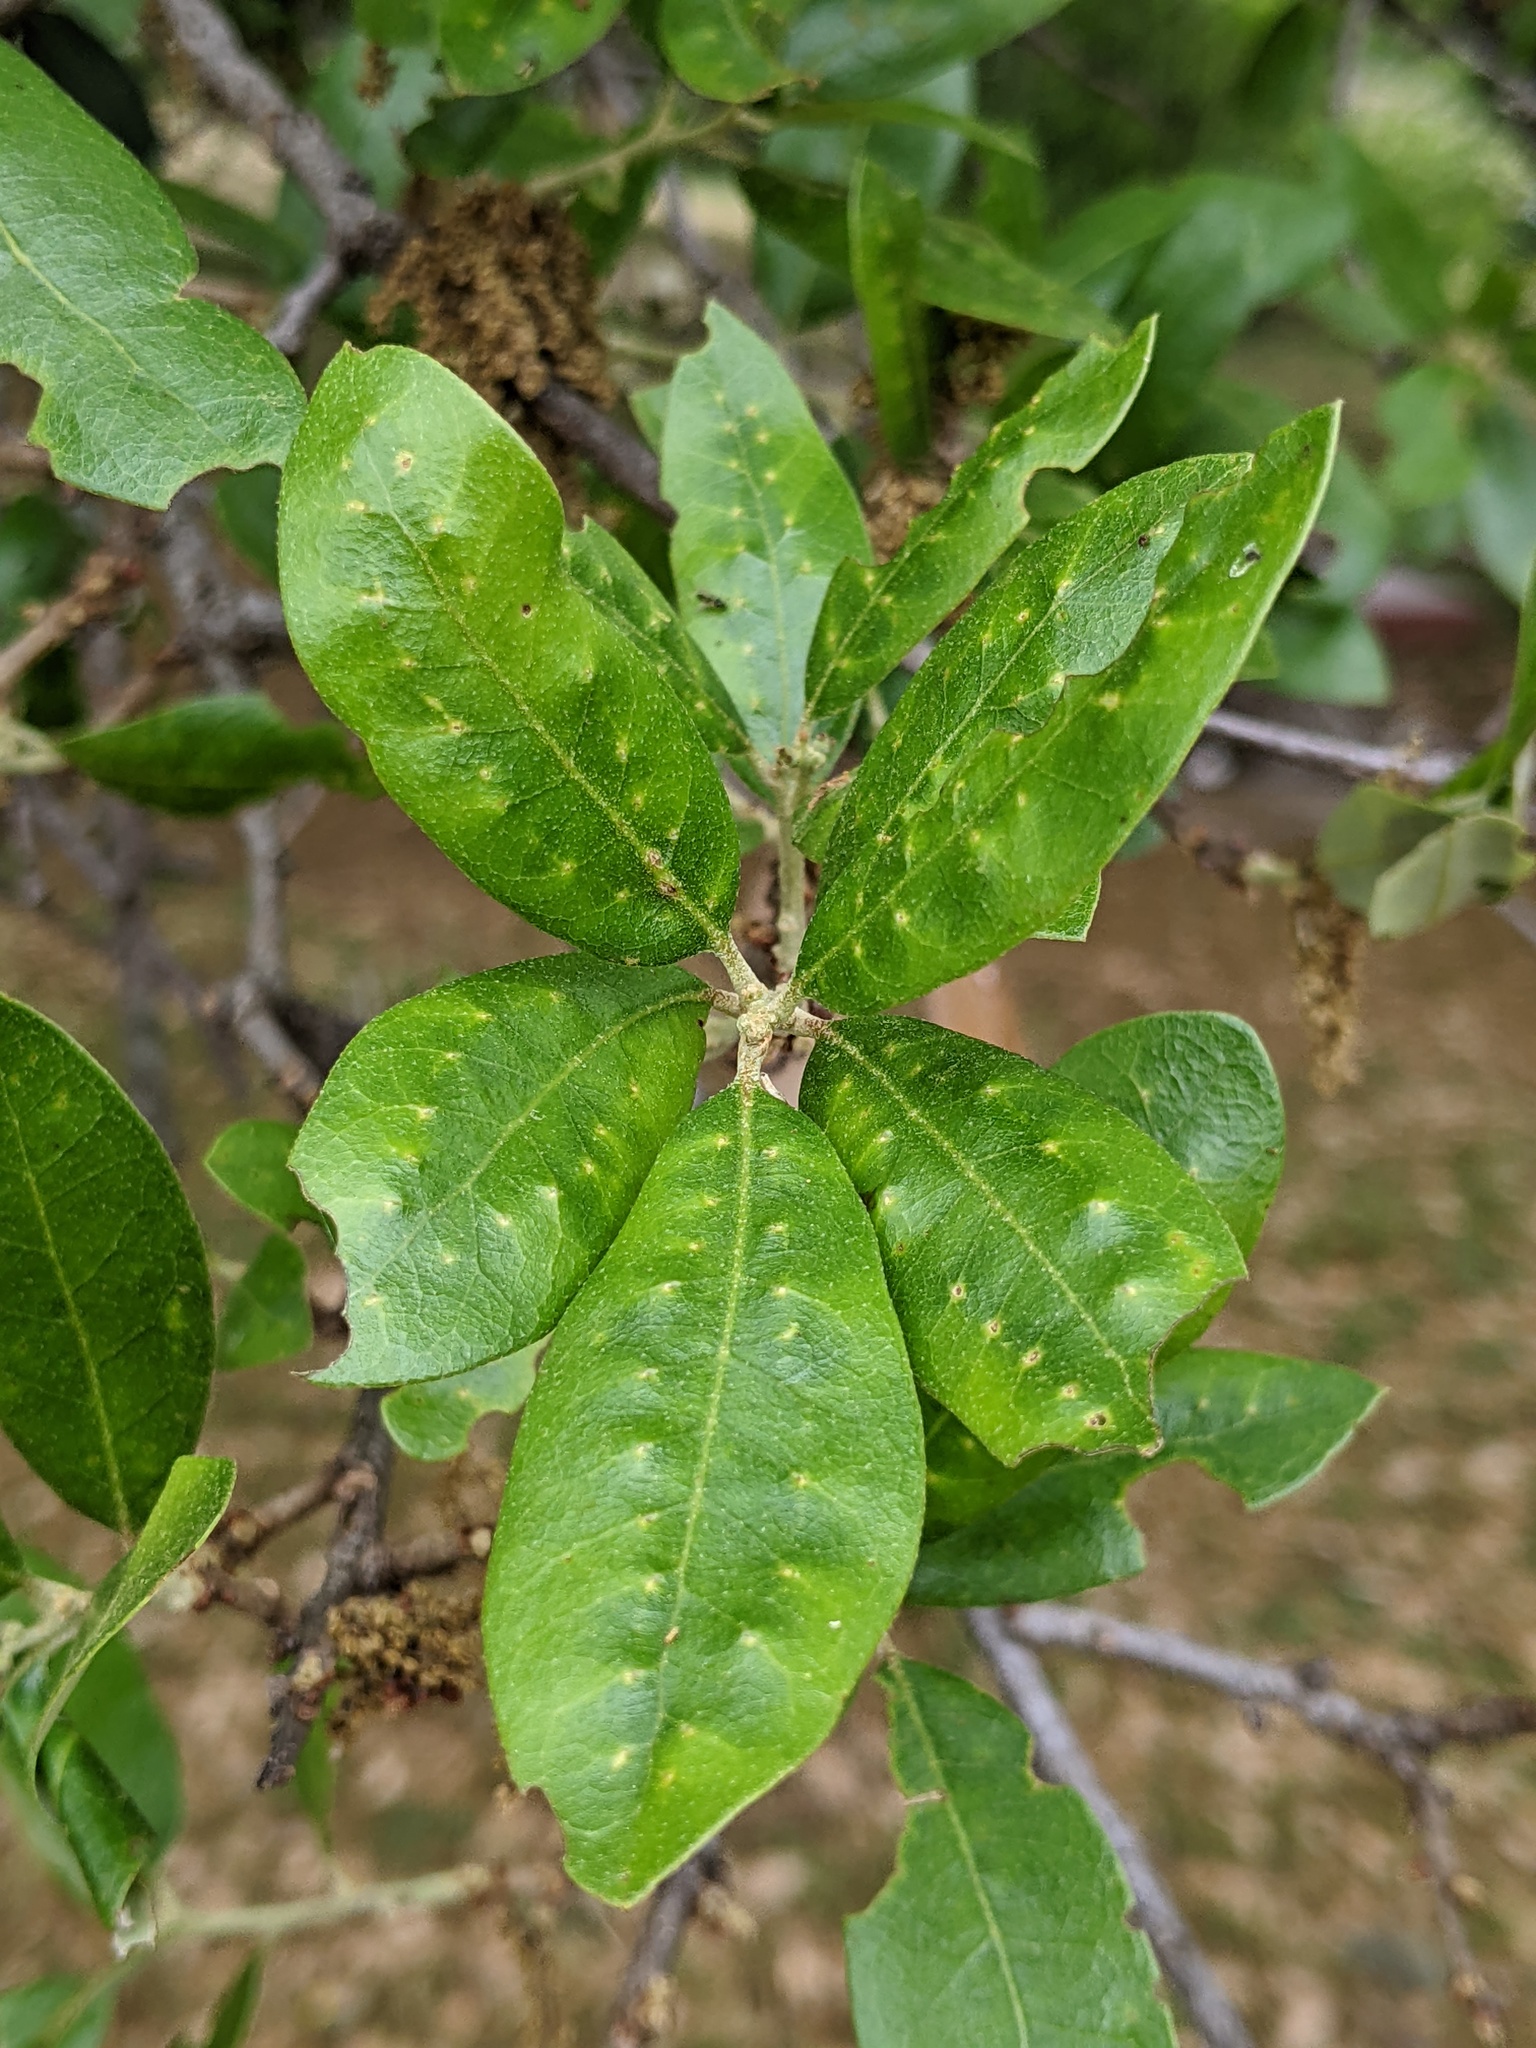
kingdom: Animalia
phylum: Arthropoda
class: Insecta
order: Hymenoptera
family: Cynipidae
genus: Belonocnema
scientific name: Belonocnema kinseyi
